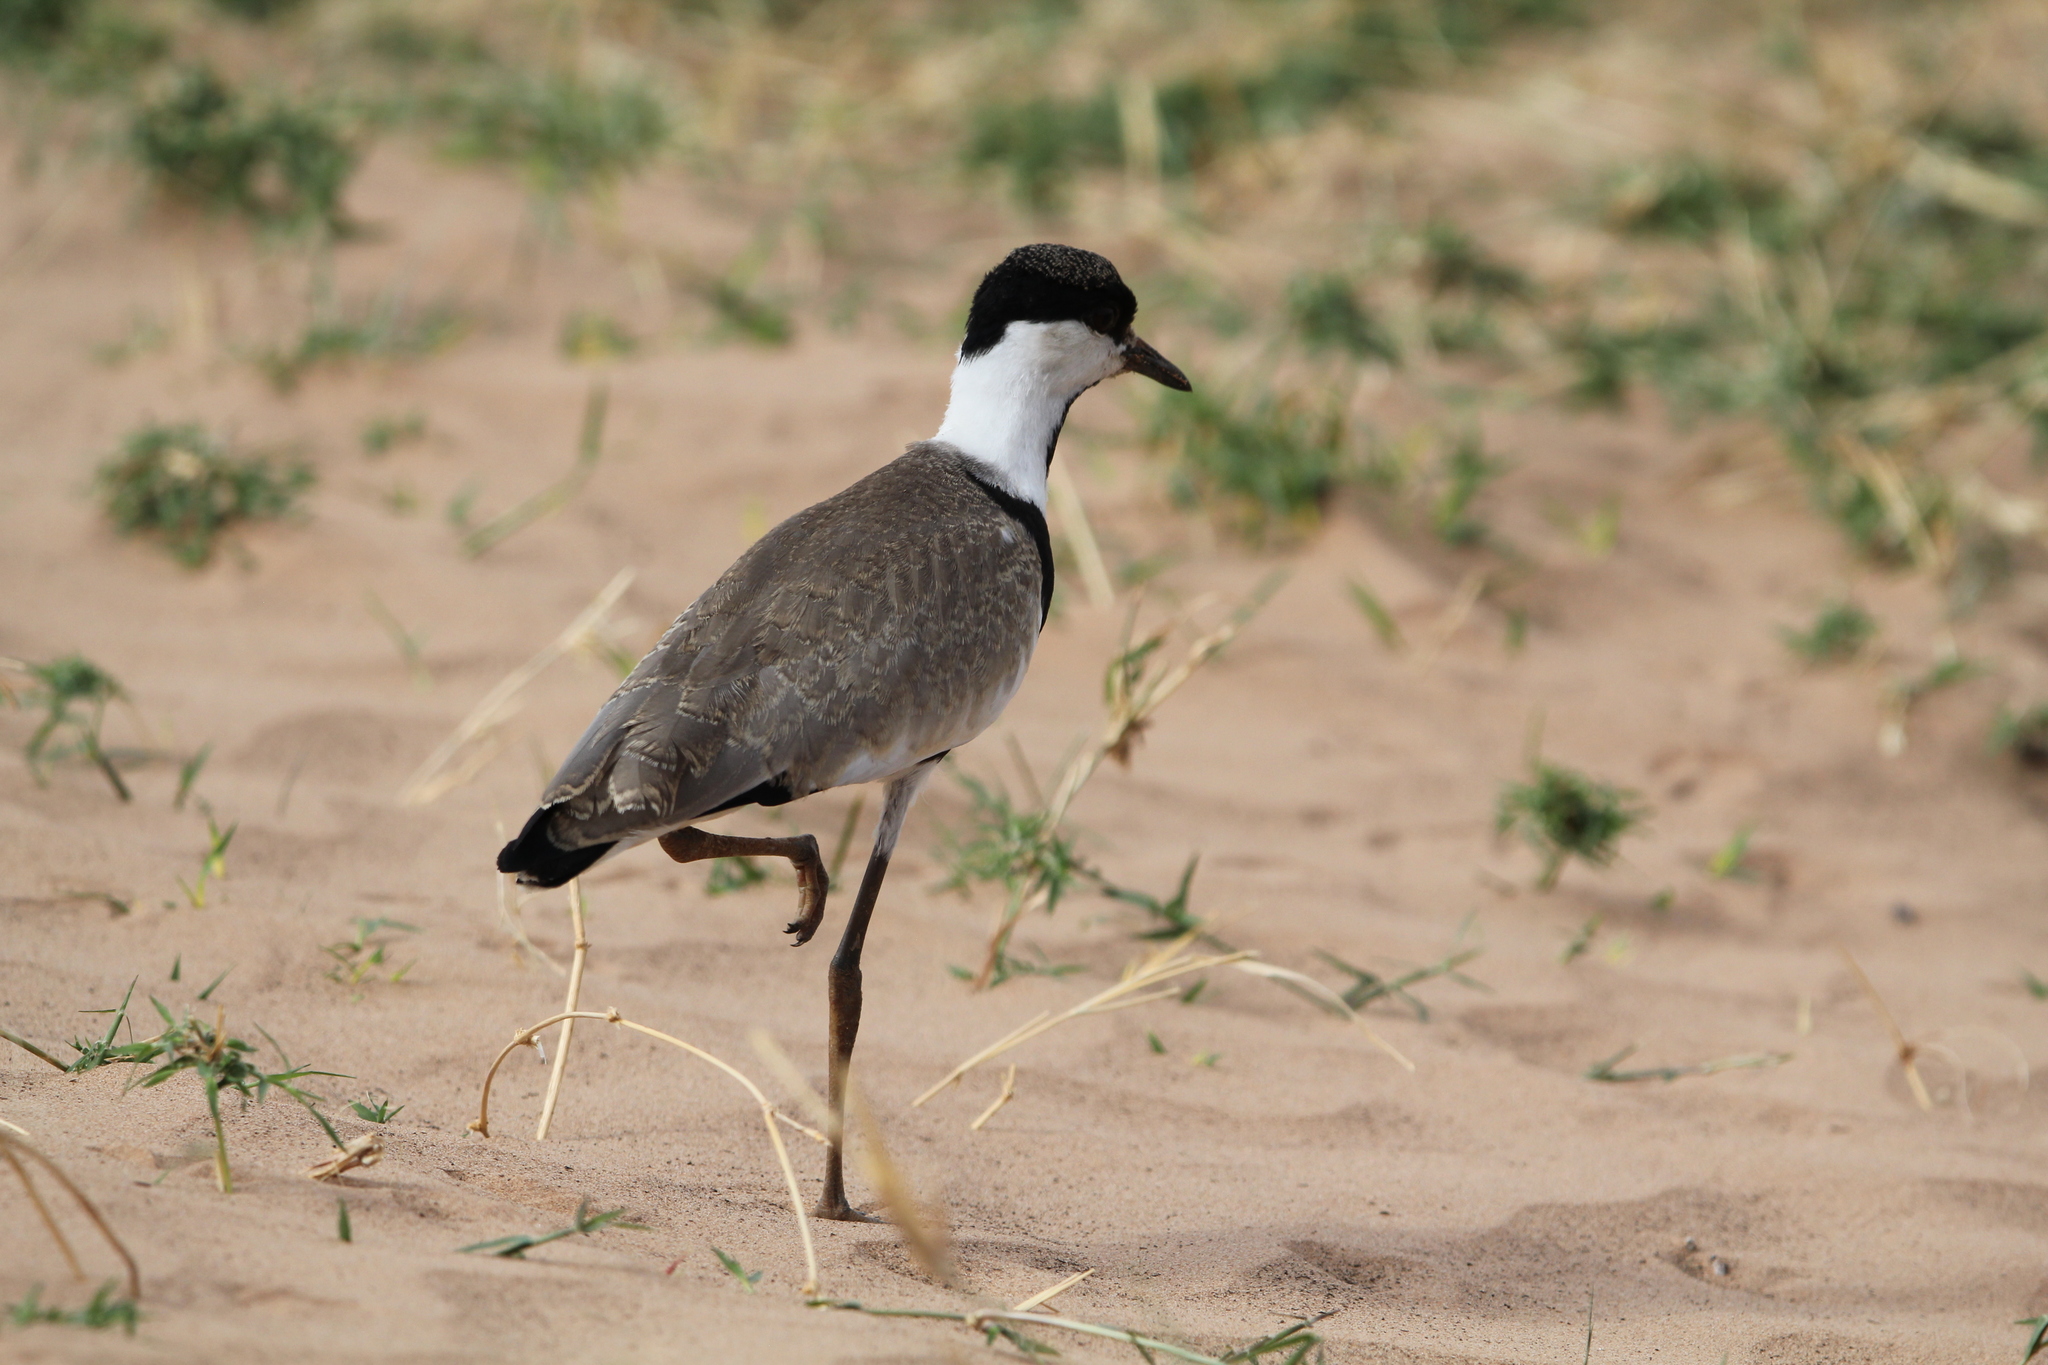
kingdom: Animalia
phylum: Chordata
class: Aves
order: Charadriiformes
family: Charadriidae
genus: Vanellus
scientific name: Vanellus spinosus
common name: Spur-winged lapwing
